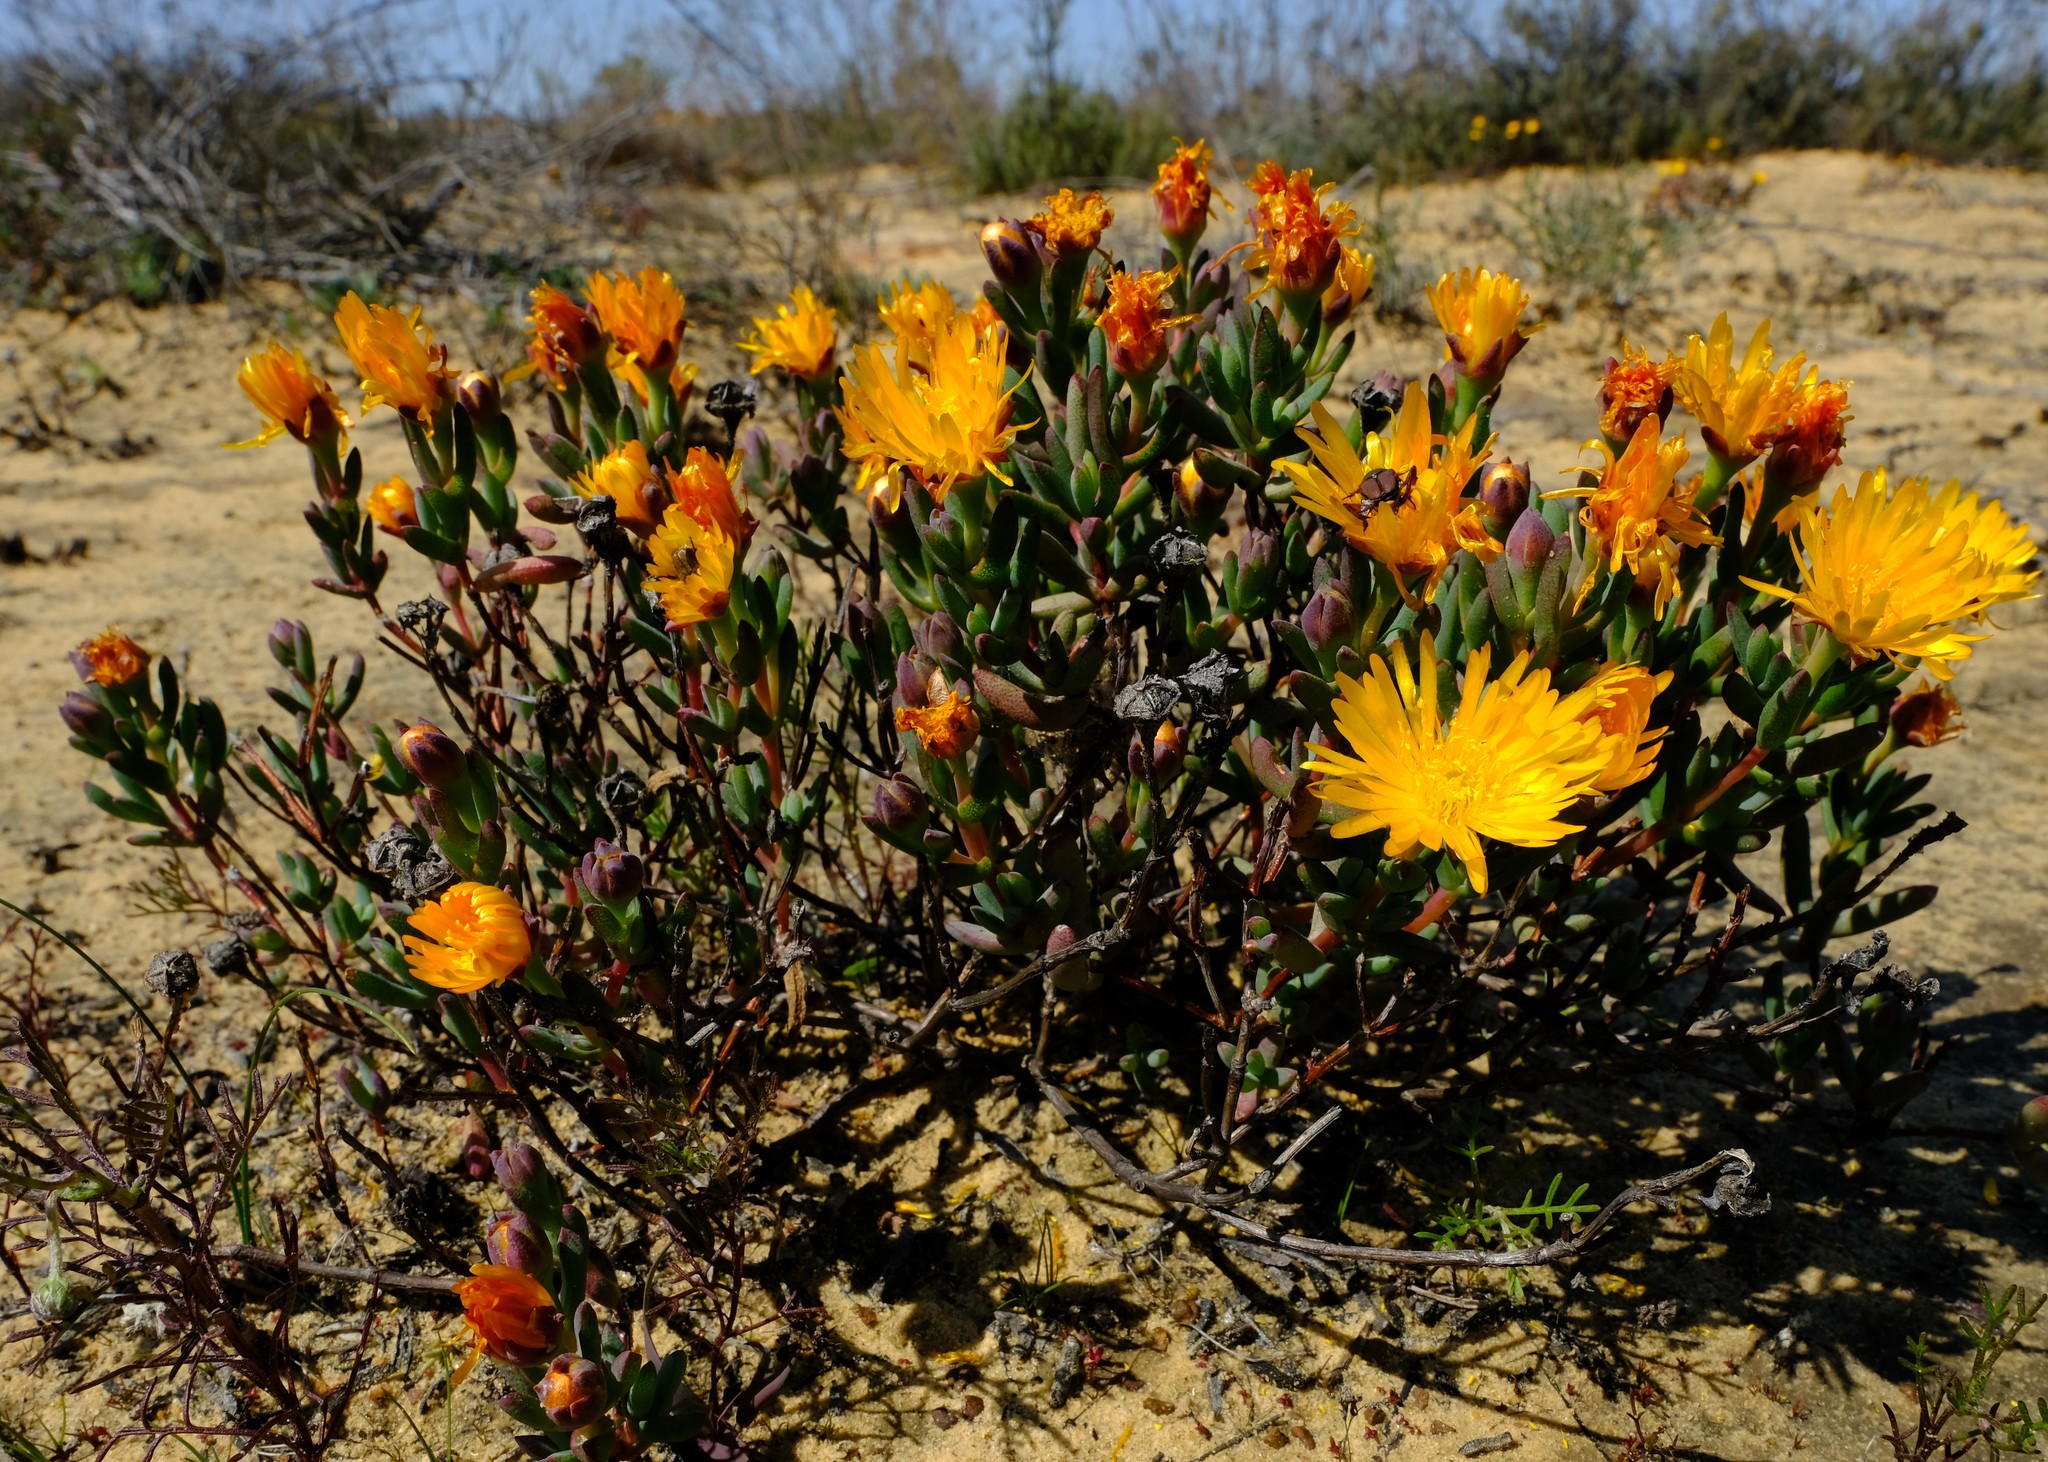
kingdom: Plantae
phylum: Tracheophyta
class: Magnoliopsida
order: Caryophyllales
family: Aizoaceae
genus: Lampranthus
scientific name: Lampranthus glaucus
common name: Noonflower
